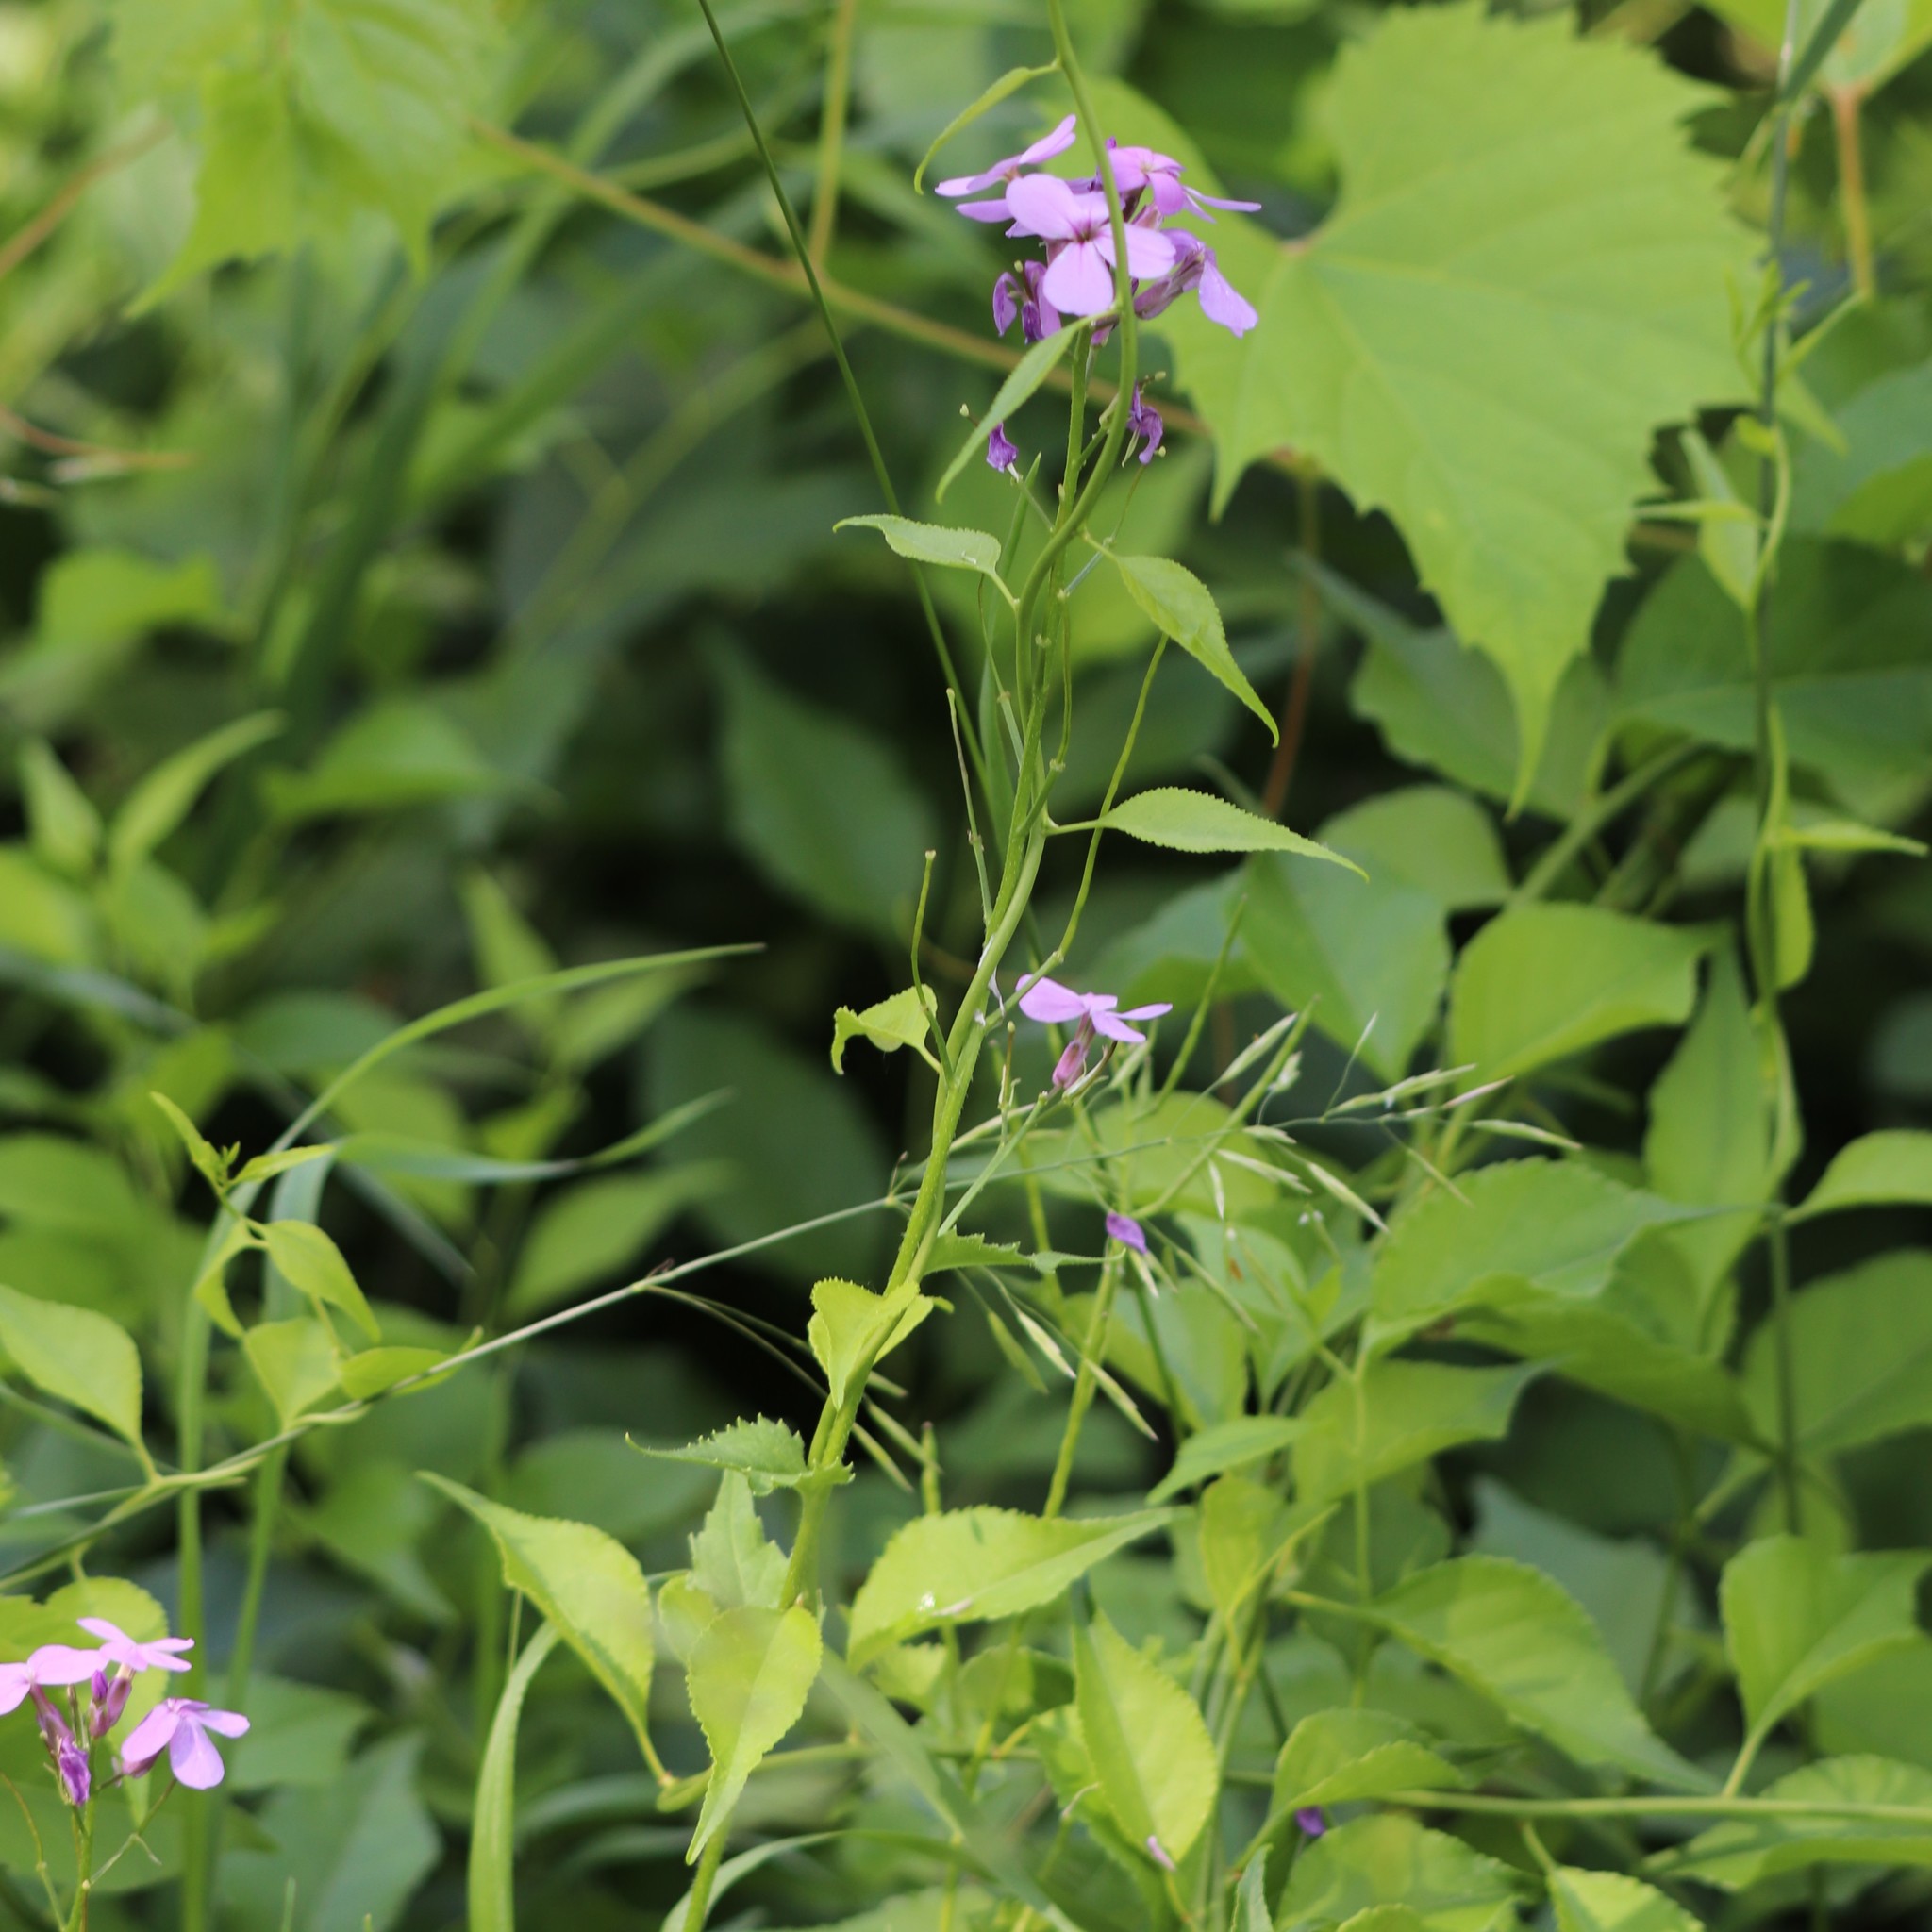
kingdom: Plantae
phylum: Tracheophyta
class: Magnoliopsida
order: Brassicales
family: Brassicaceae
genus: Hesperis
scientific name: Hesperis matronalis
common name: Dame's-violet
